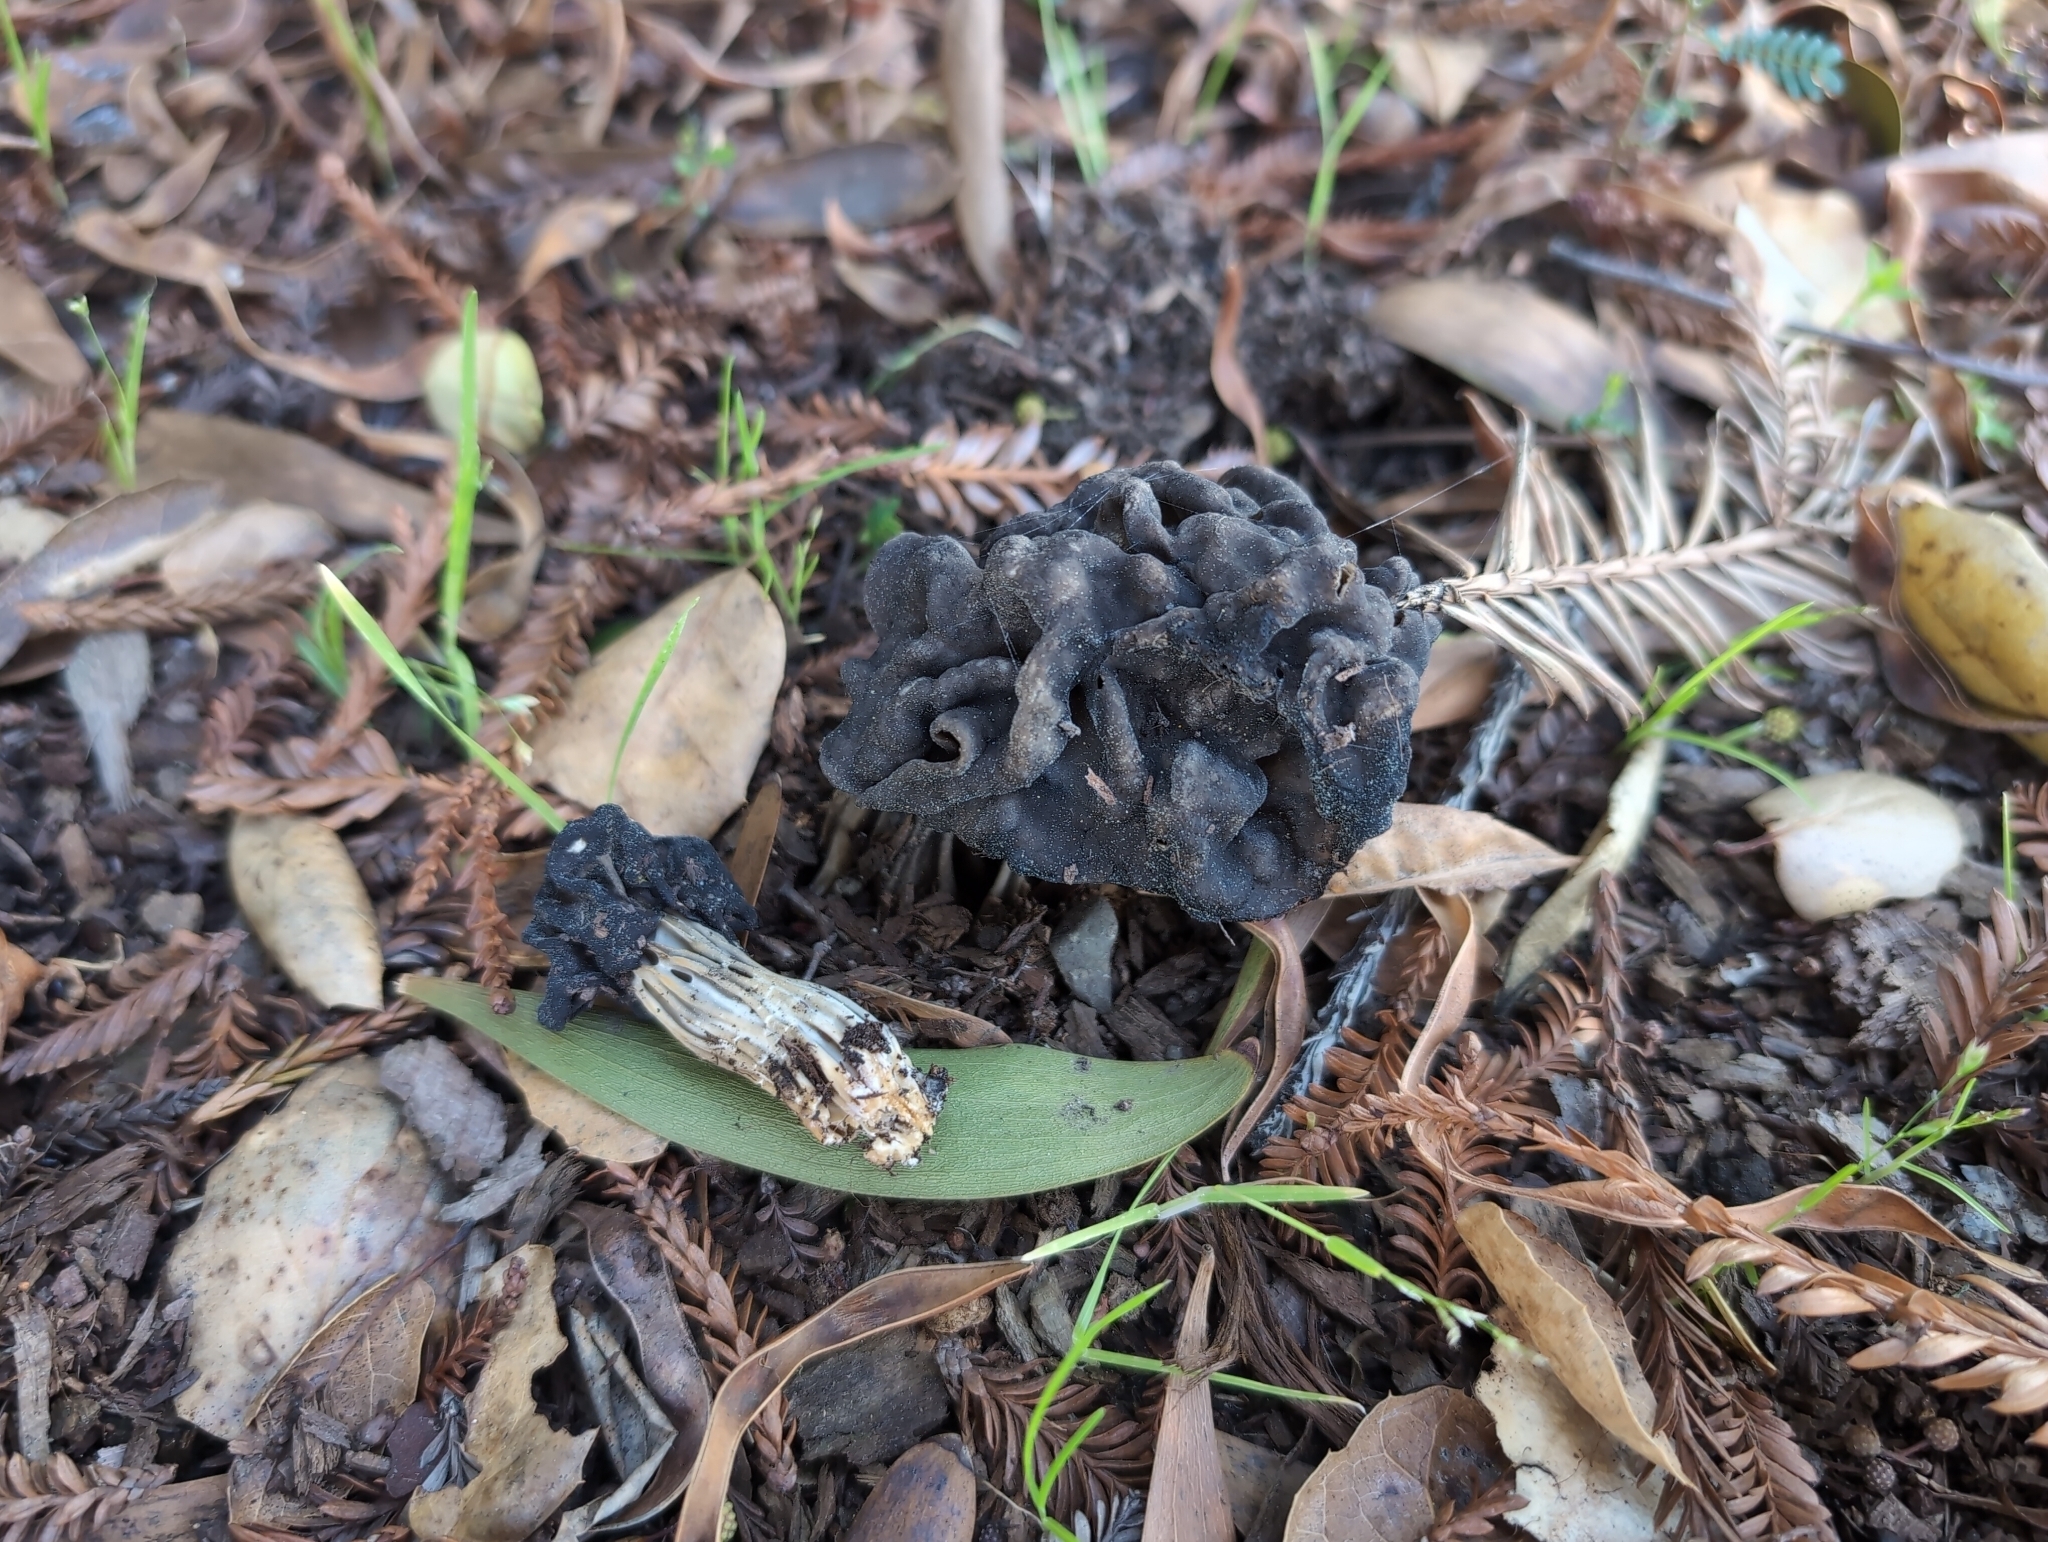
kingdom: Fungi
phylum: Ascomycota
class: Pezizomycetes
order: Pezizales
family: Helvellaceae
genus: Helvella
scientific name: Helvella dryophila
